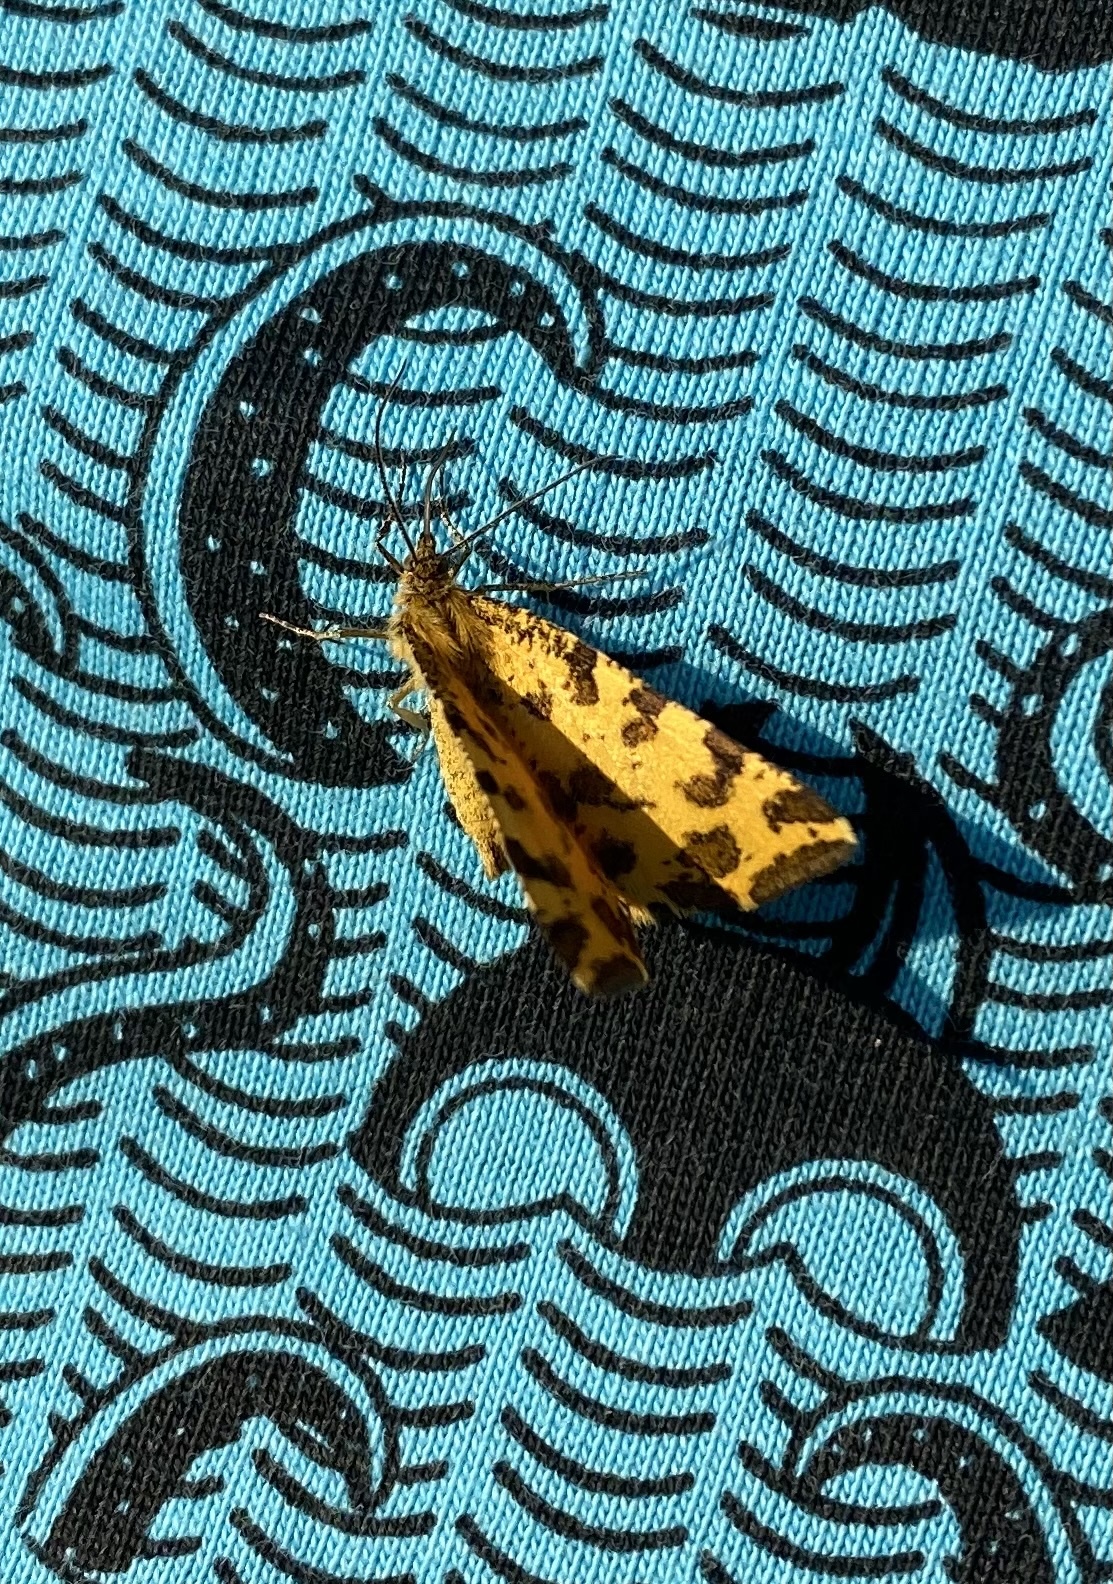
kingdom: Animalia
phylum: Arthropoda
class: Insecta
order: Lepidoptera
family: Geometridae
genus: Pseudopanthera
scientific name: Pseudopanthera macularia
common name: Speckled yellow
